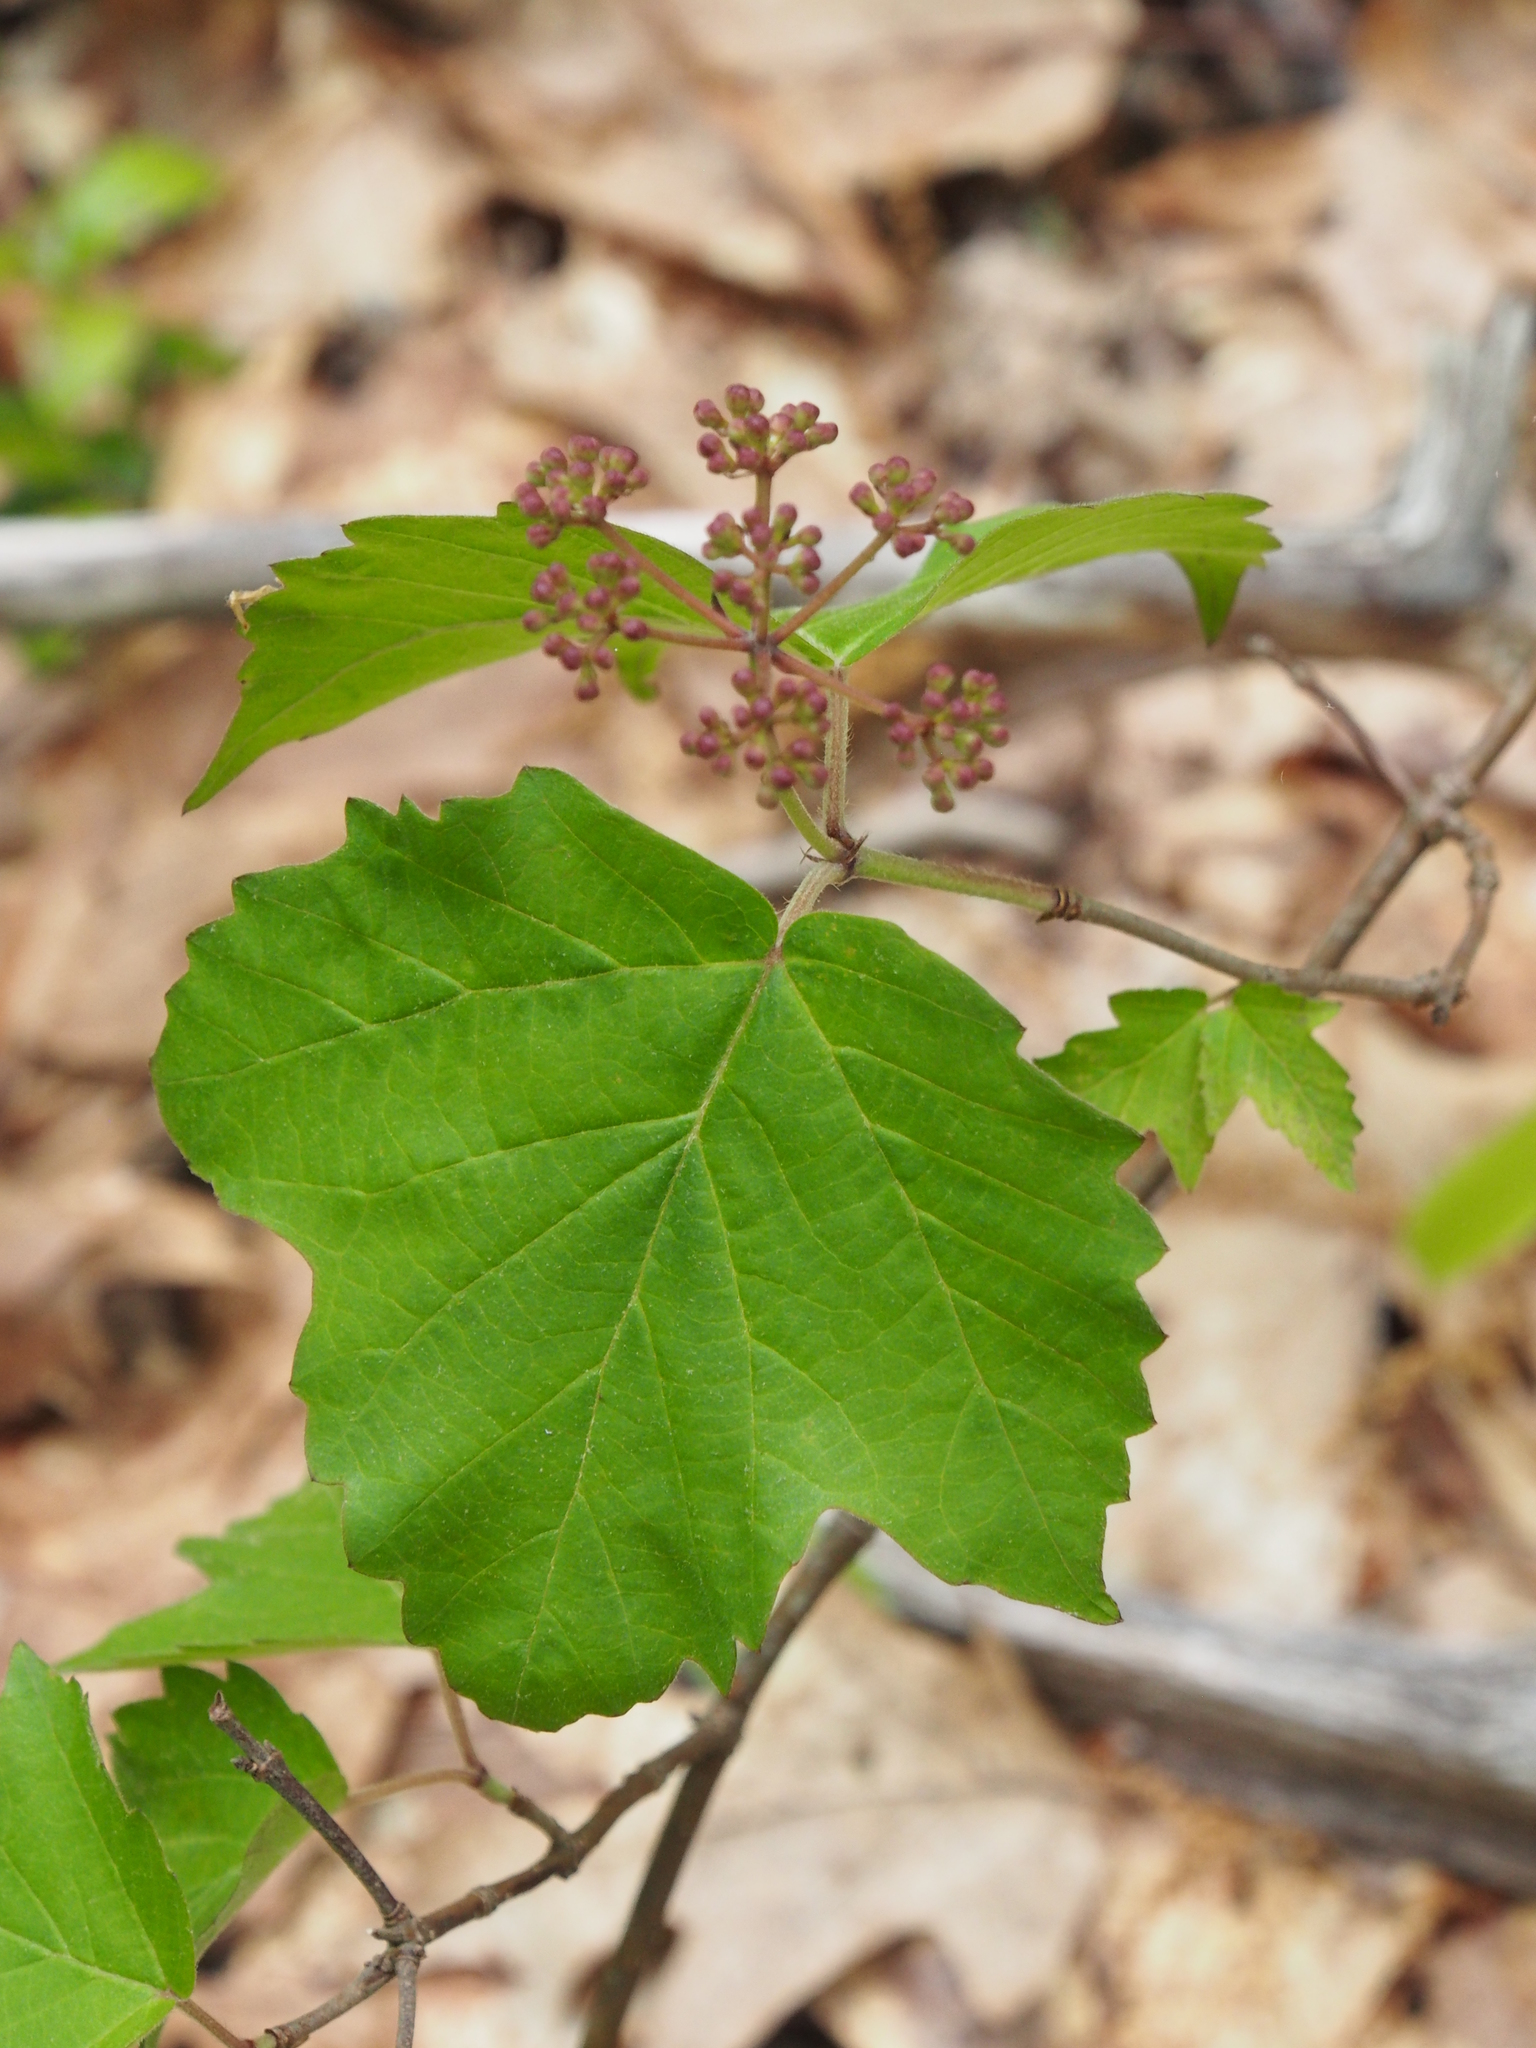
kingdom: Plantae
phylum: Tracheophyta
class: Magnoliopsida
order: Dipsacales
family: Viburnaceae
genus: Viburnum
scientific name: Viburnum acerifolium
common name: Dockmackie
